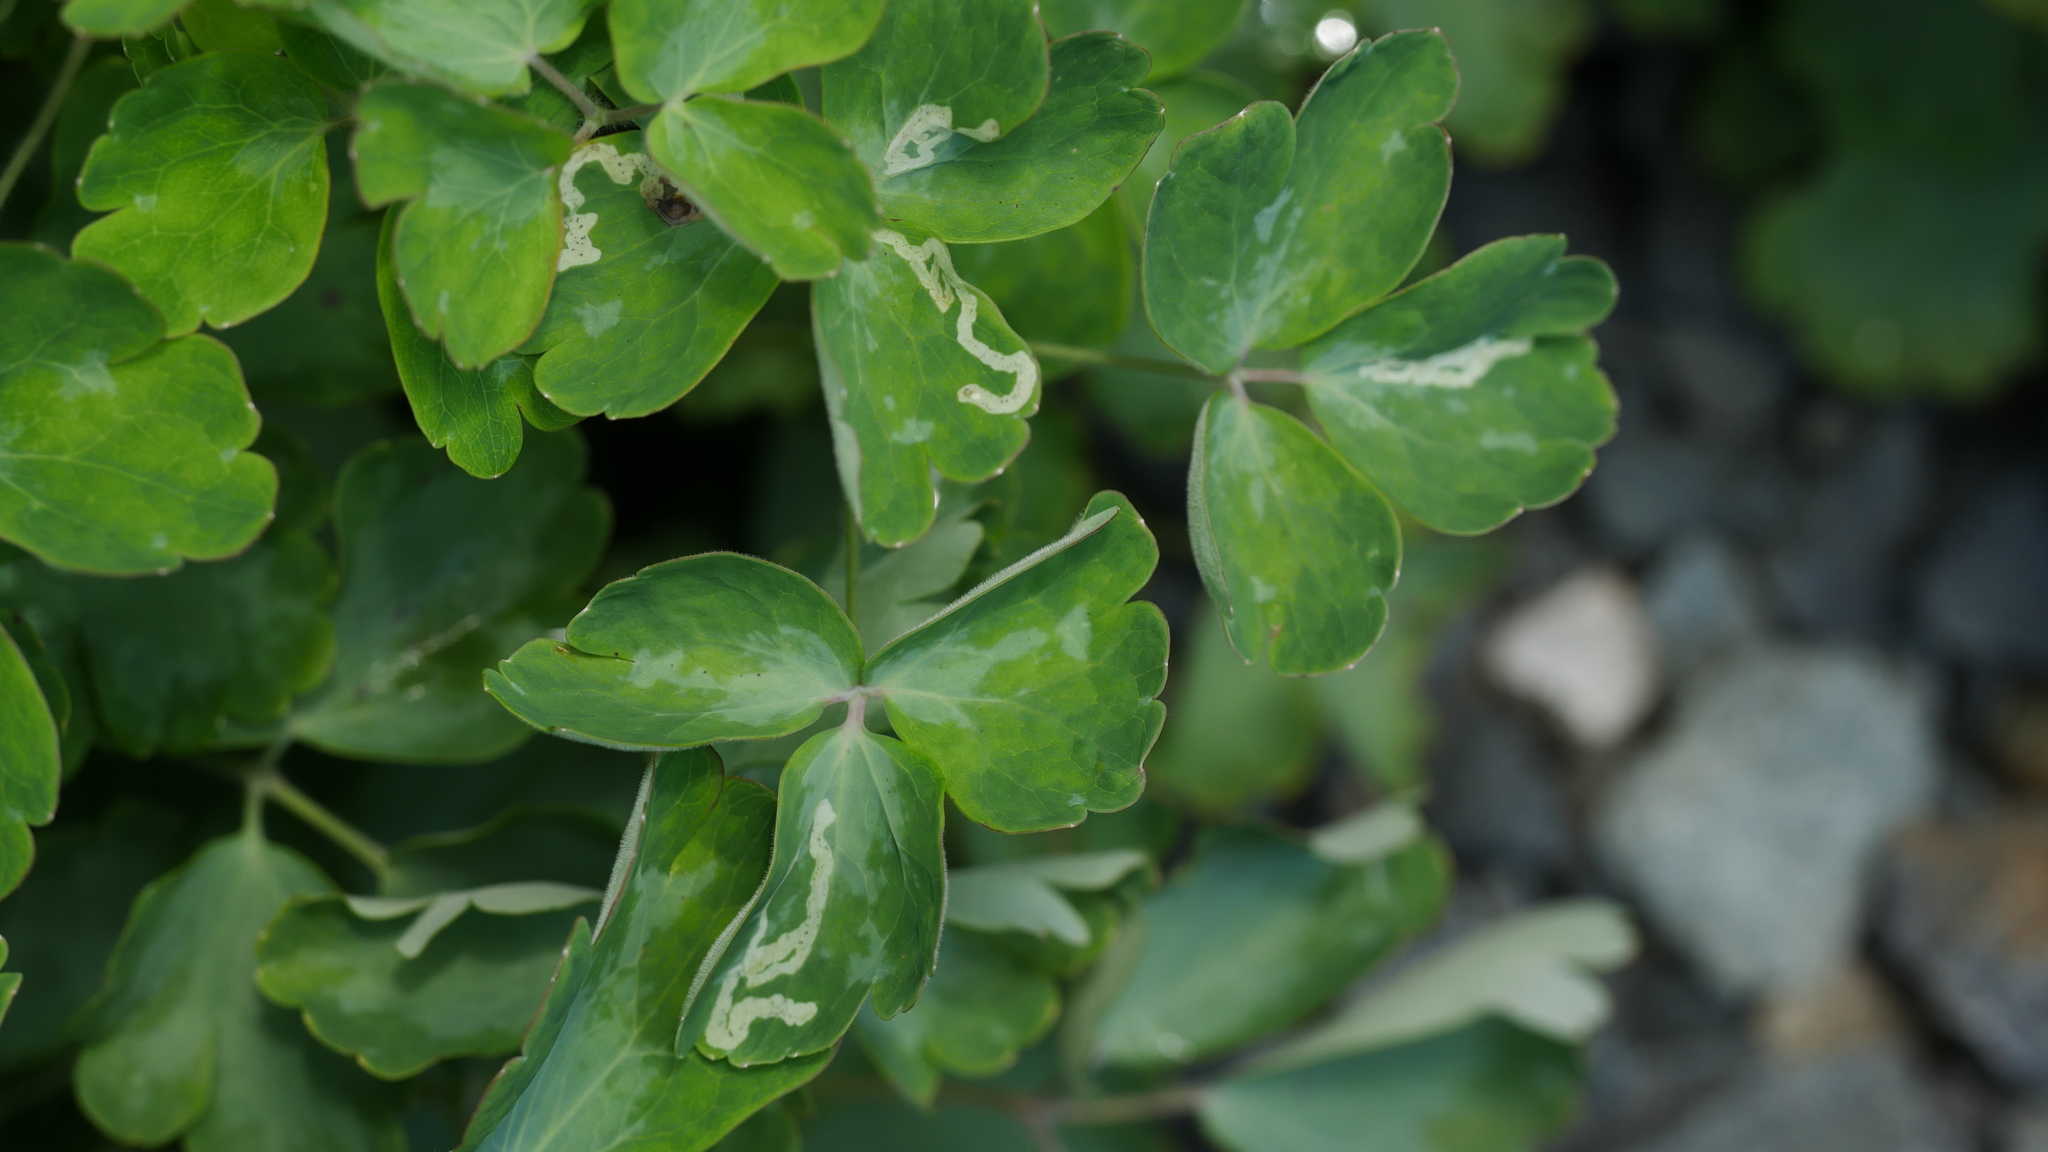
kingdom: Animalia
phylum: Arthropoda
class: Insecta
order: Diptera
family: Agromyzidae
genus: Phytomyza
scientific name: Phytomyza
